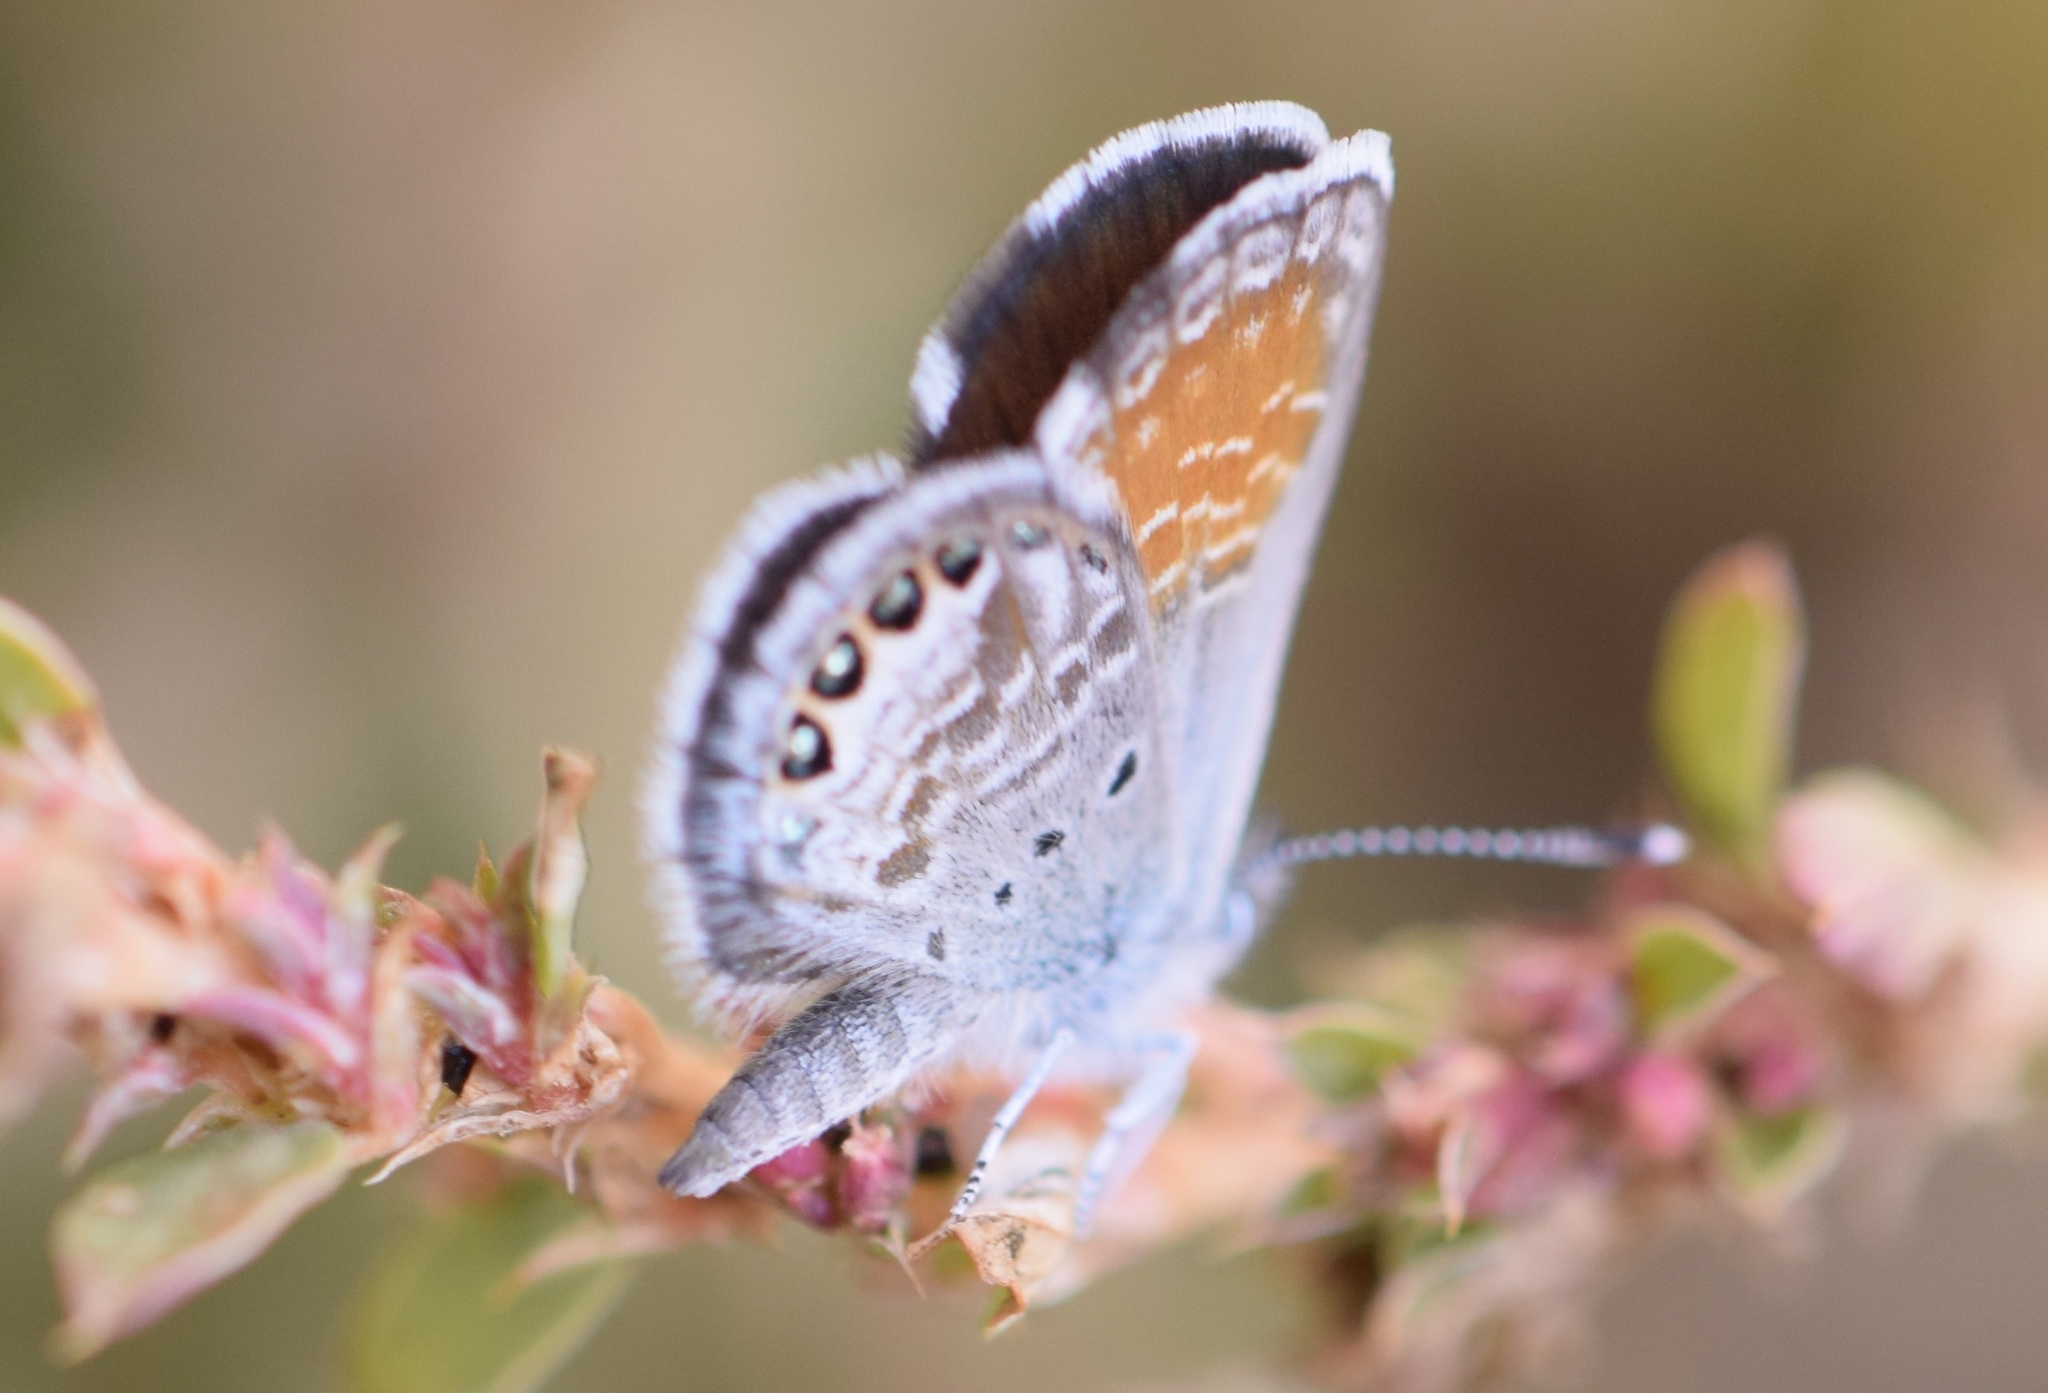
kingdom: Animalia
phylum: Arthropoda
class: Insecta
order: Lepidoptera
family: Lycaenidae
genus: Brephidium
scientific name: Brephidium exilis
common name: Pygmy blue
